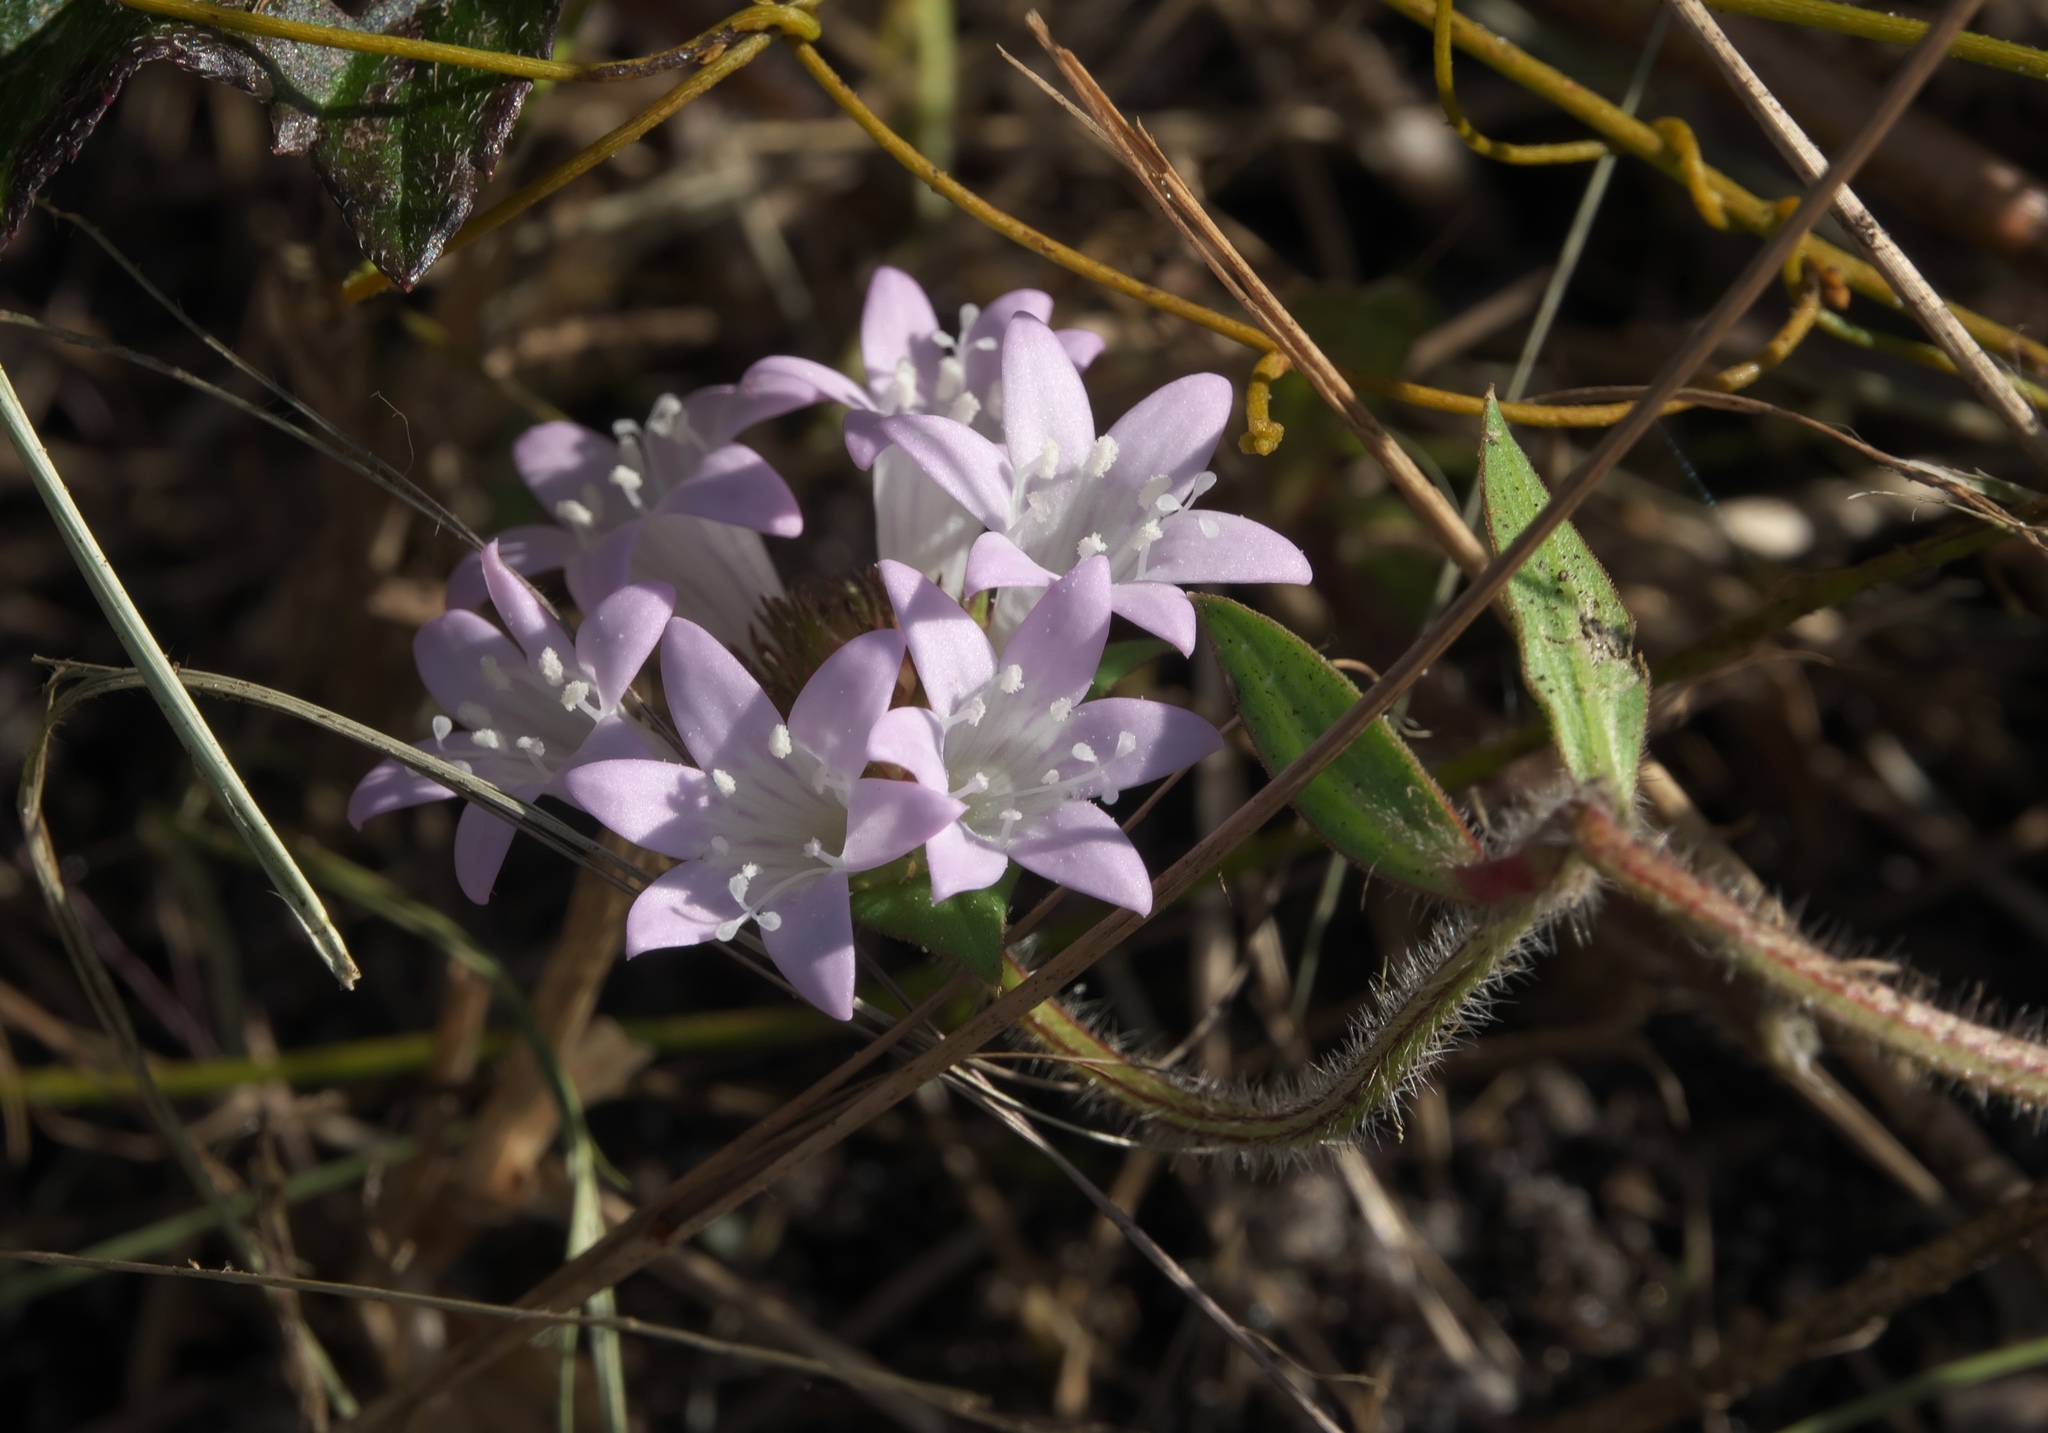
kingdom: Plantae
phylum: Tracheophyta
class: Magnoliopsida
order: Gentianales
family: Rubiaceae
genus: Richardia
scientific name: Richardia grandiflora
